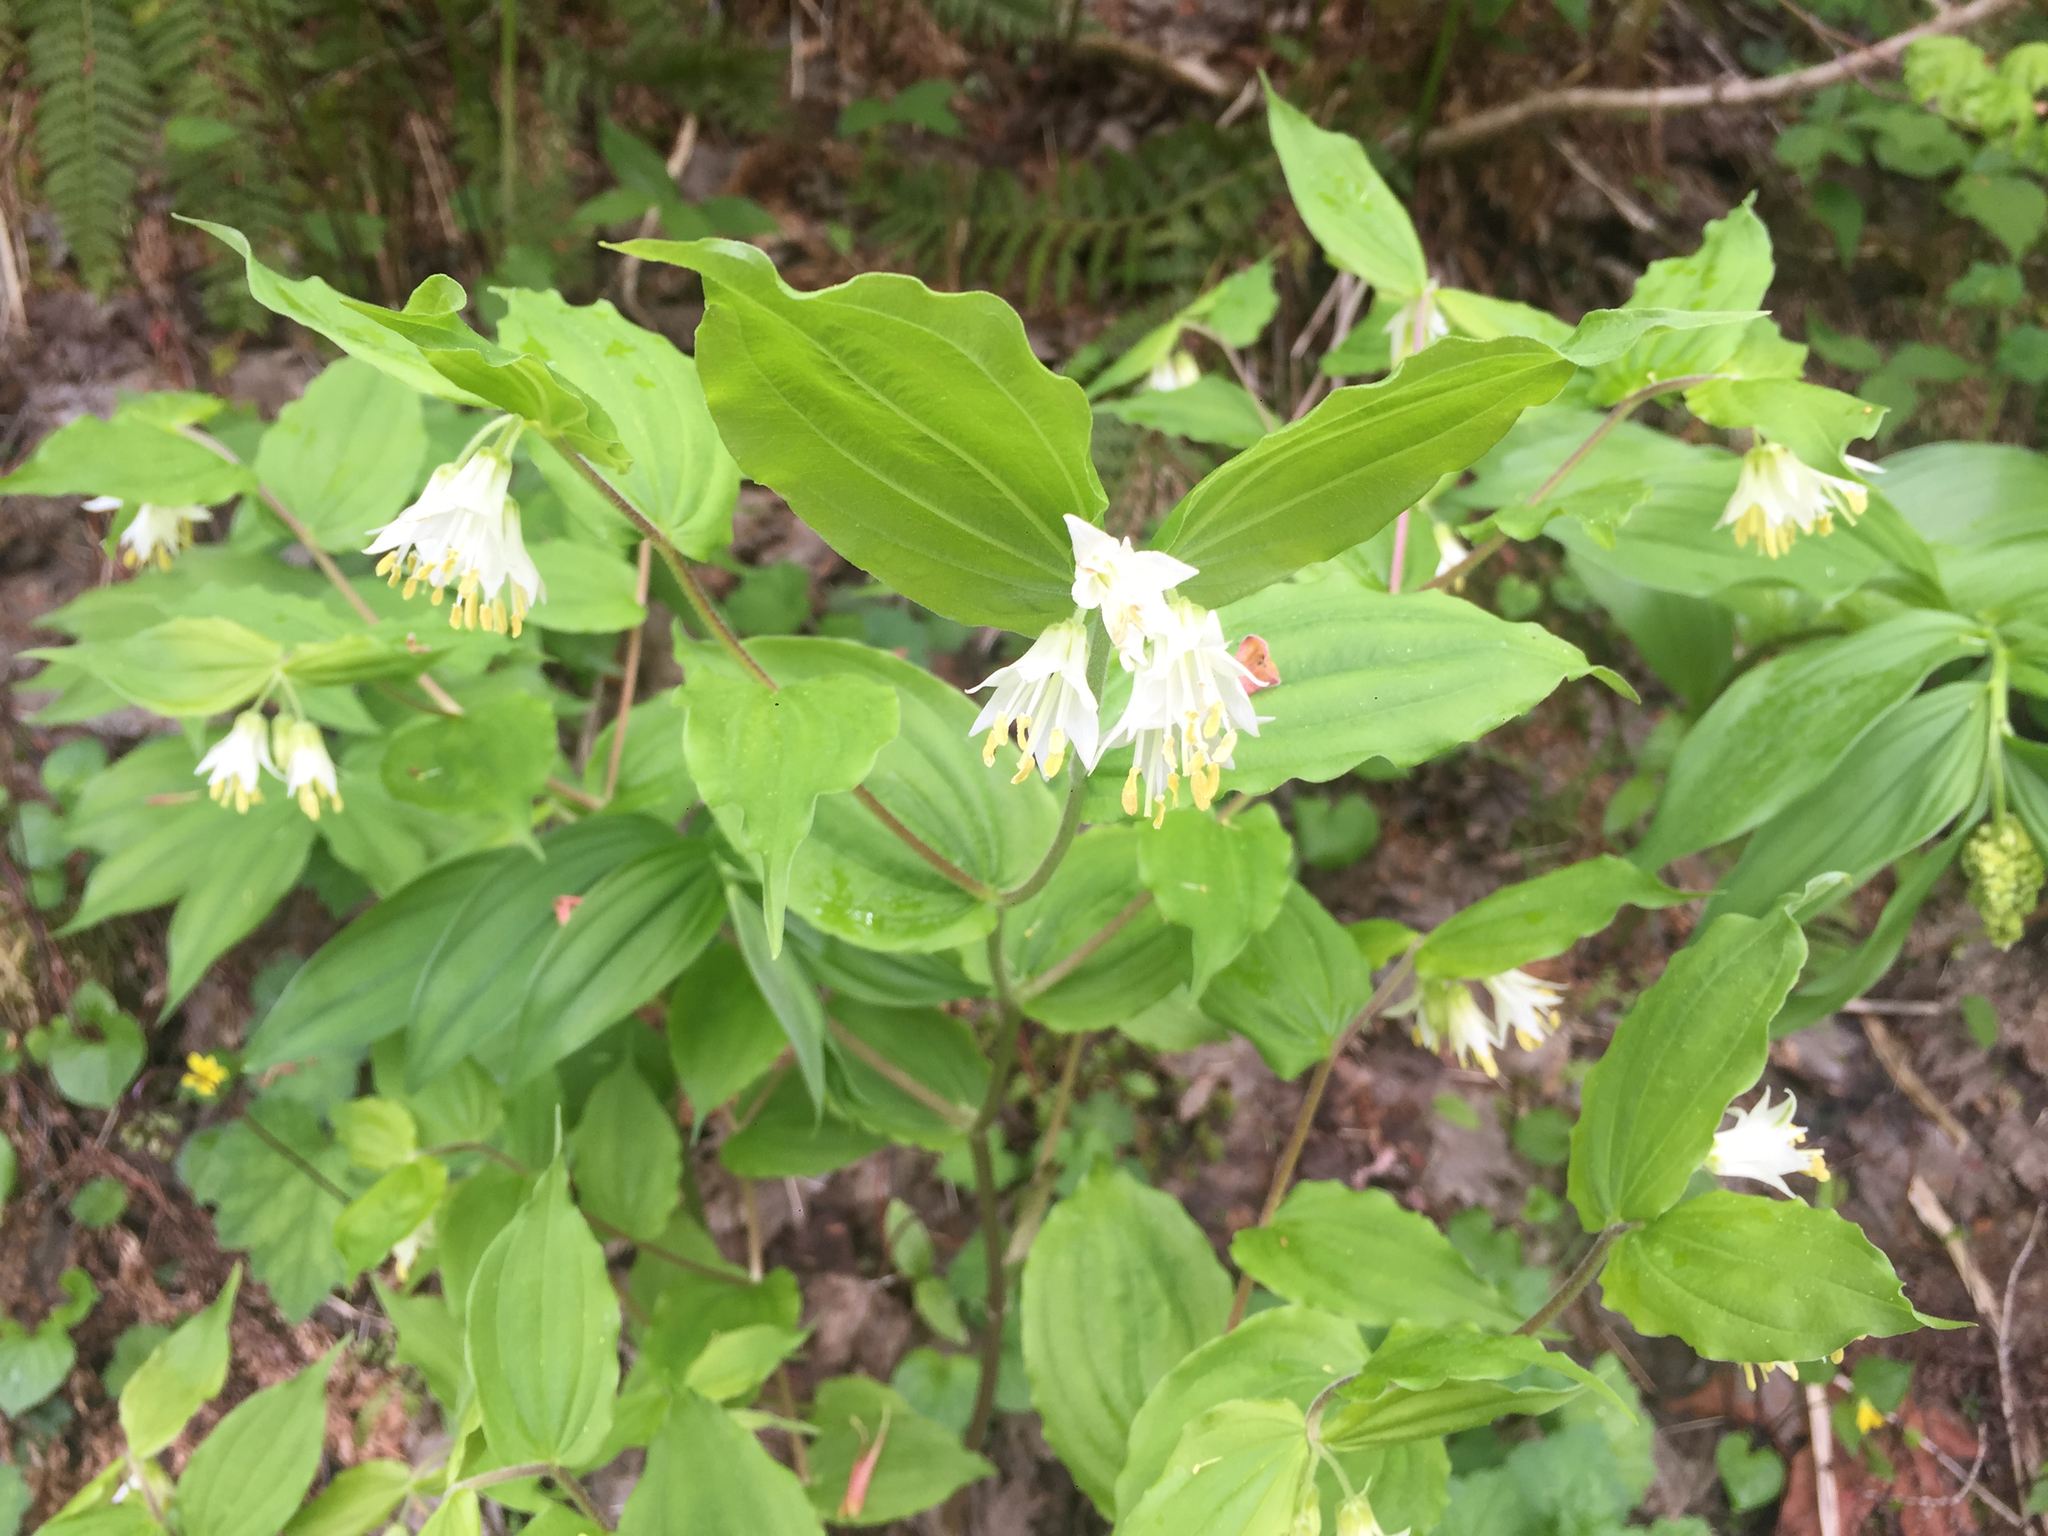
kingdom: Plantae
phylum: Tracheophyta
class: Liliopsida
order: Liliales
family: Liliaceae
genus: Prosartes
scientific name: Prosartes hookeri
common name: Fairy-bells
